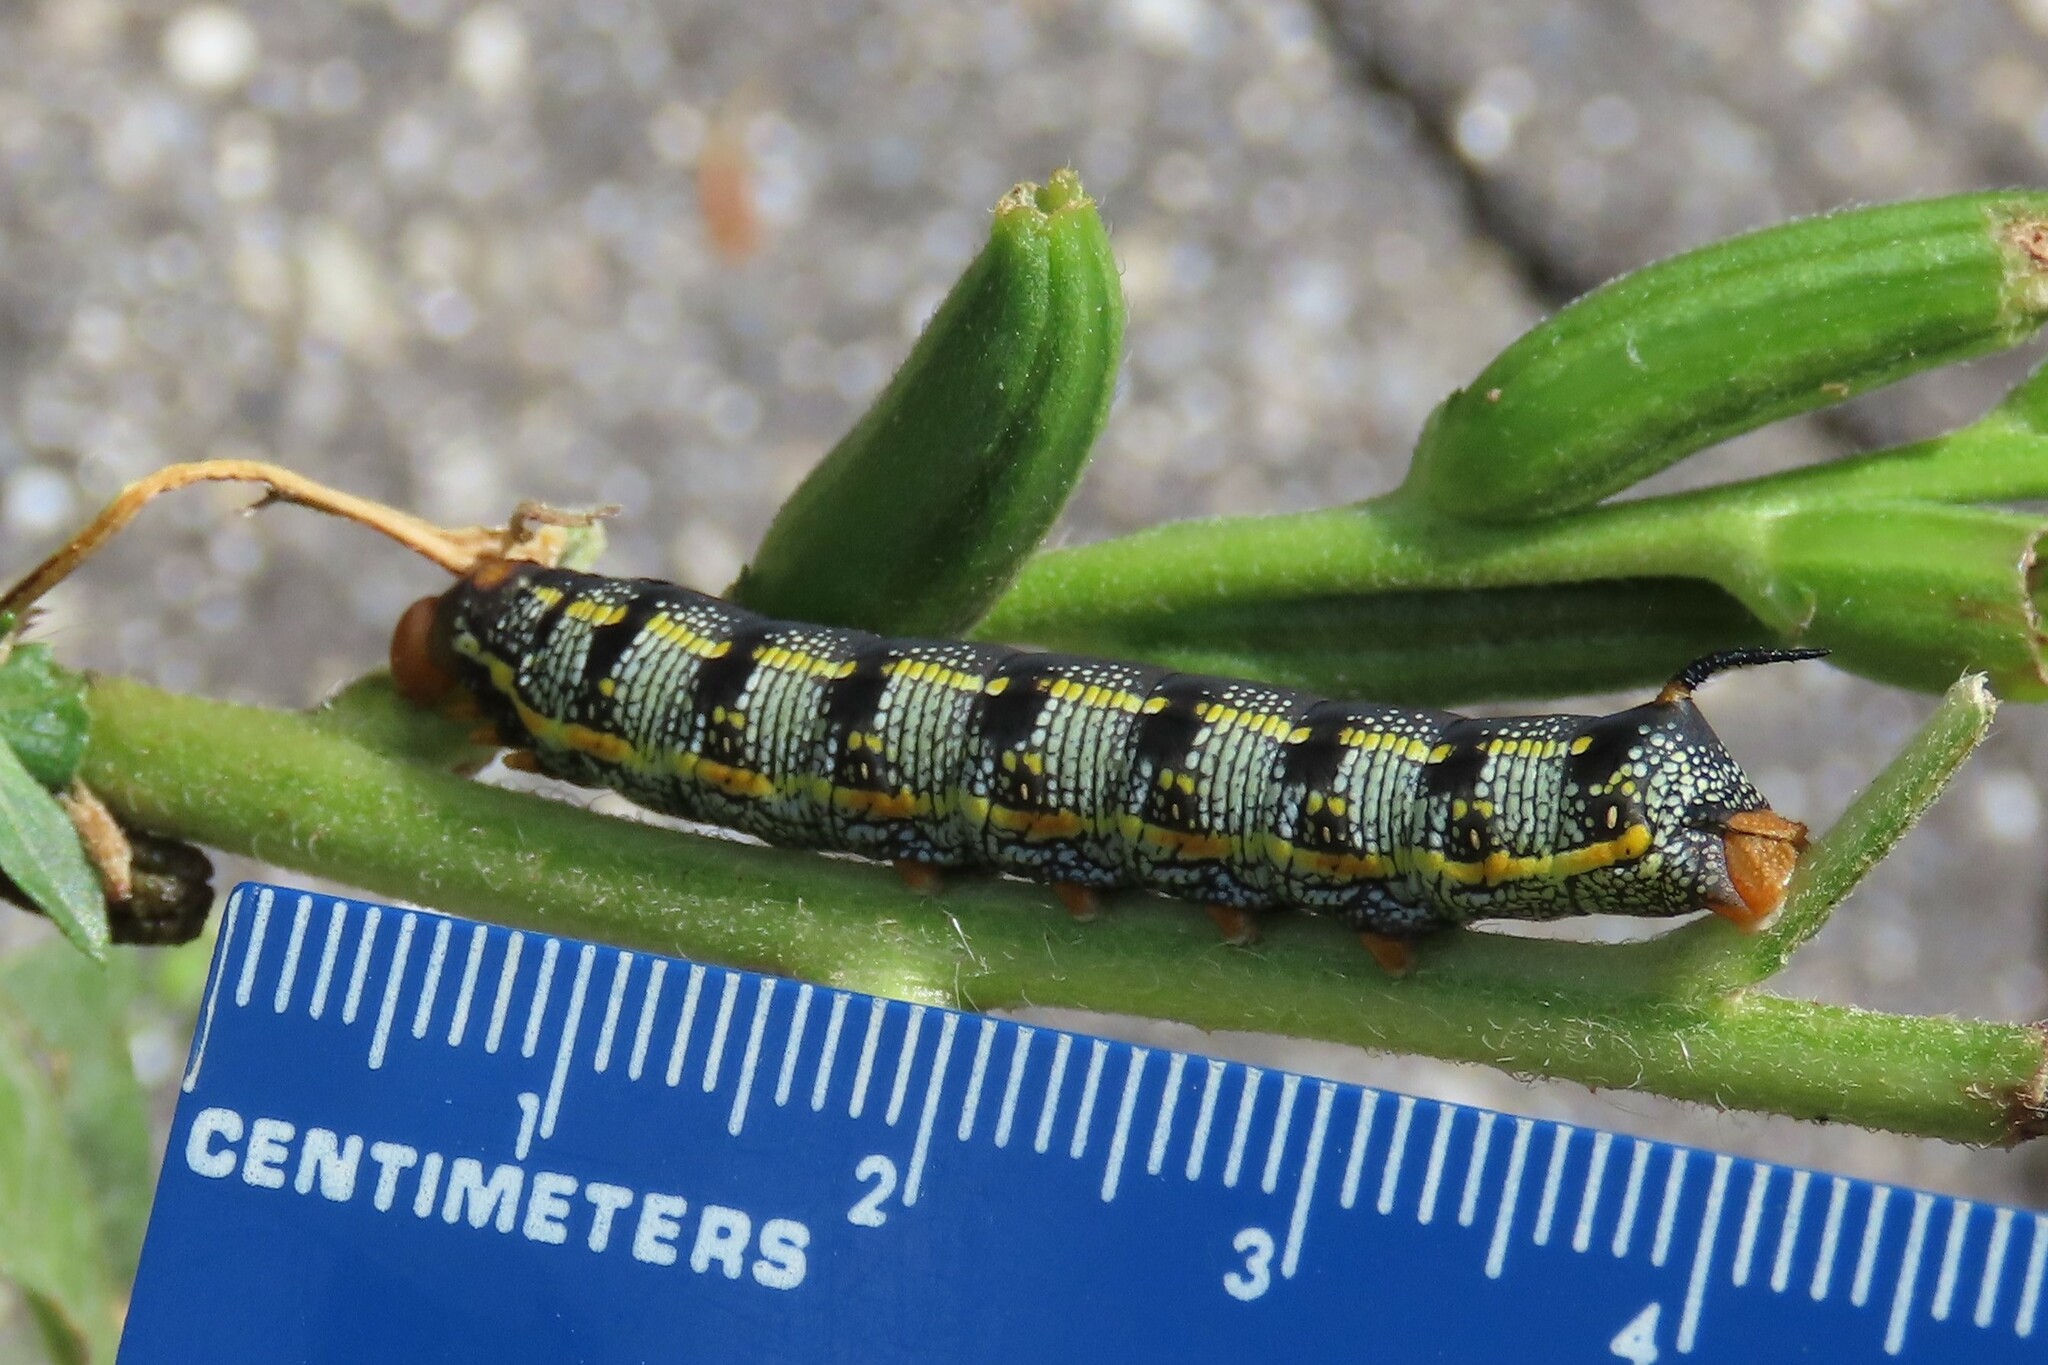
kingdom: Animalia
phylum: Arthropoda
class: Insecta
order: Lepidoptera
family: Sphingidae
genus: Hyles
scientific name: Hyles lineata
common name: White-lined sphinx
